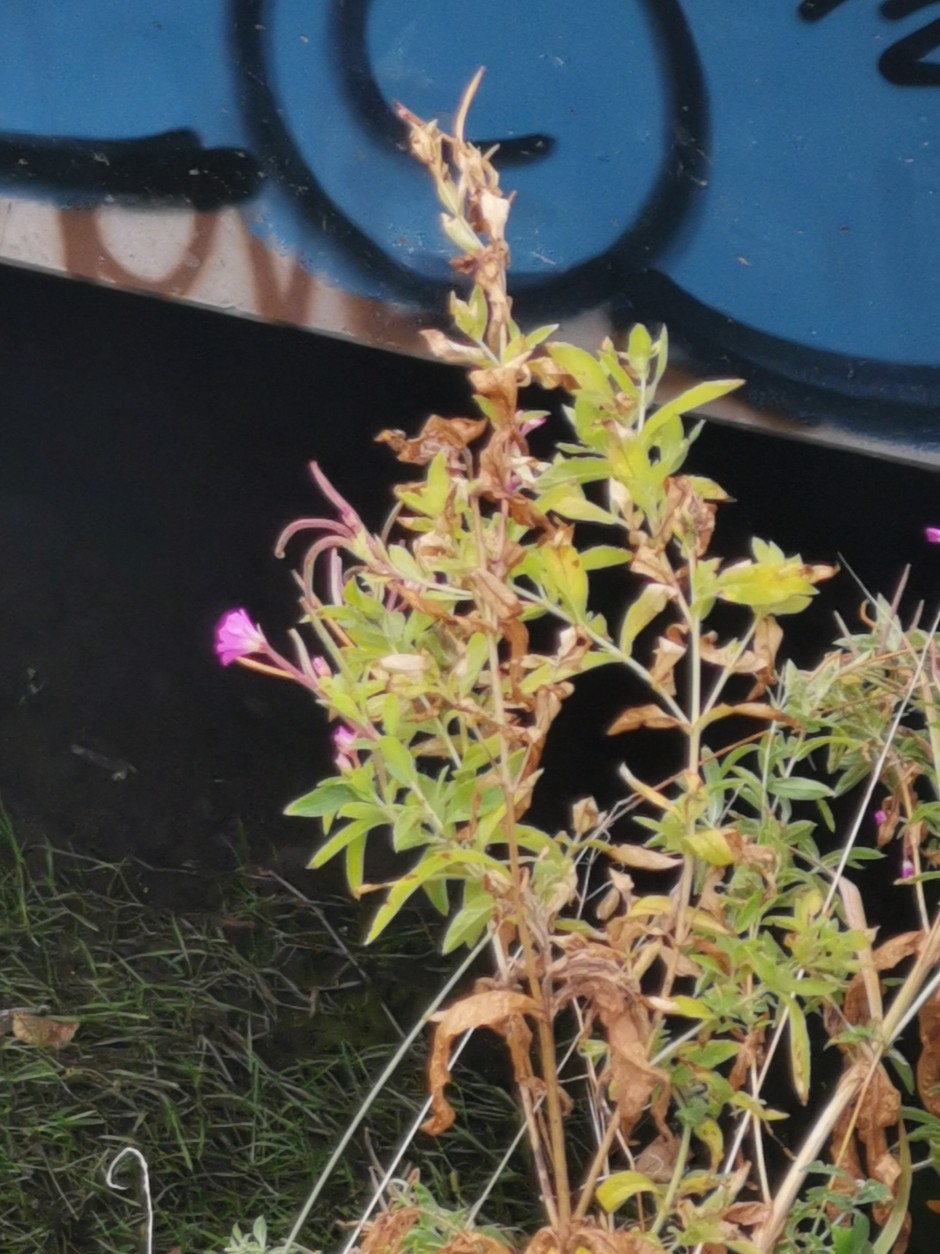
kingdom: Plantae
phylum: Tracheophyta
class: Magnoliopsida
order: Myrtales
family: Onagraceae
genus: Epilobium
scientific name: Epilobium hirsutum
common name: Great willowherb
